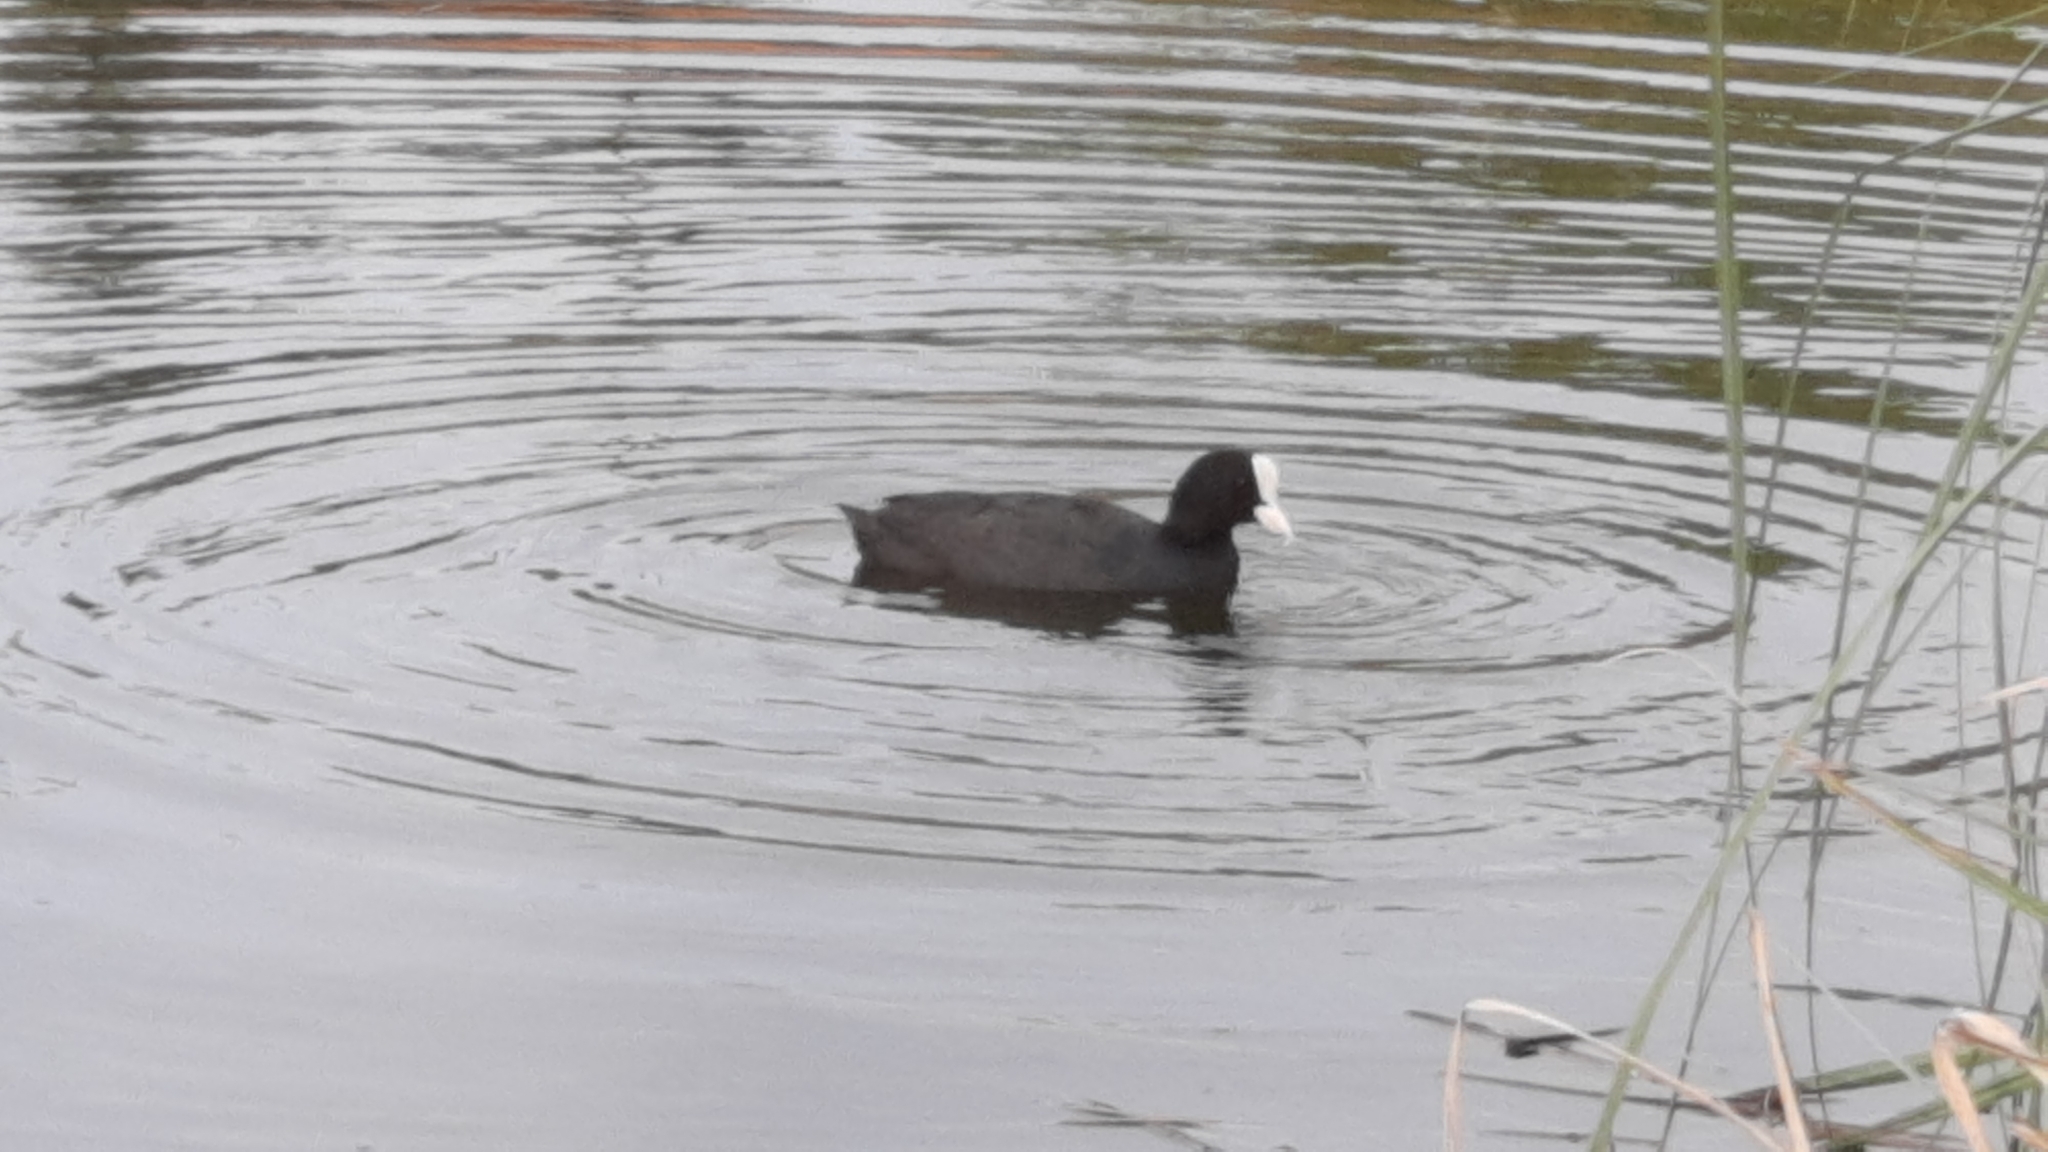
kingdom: Animalia
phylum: Chordata
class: Aves
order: Gruiformes
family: Rallidae
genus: Fulica
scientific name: Fulica atra
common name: Eurasian coot
